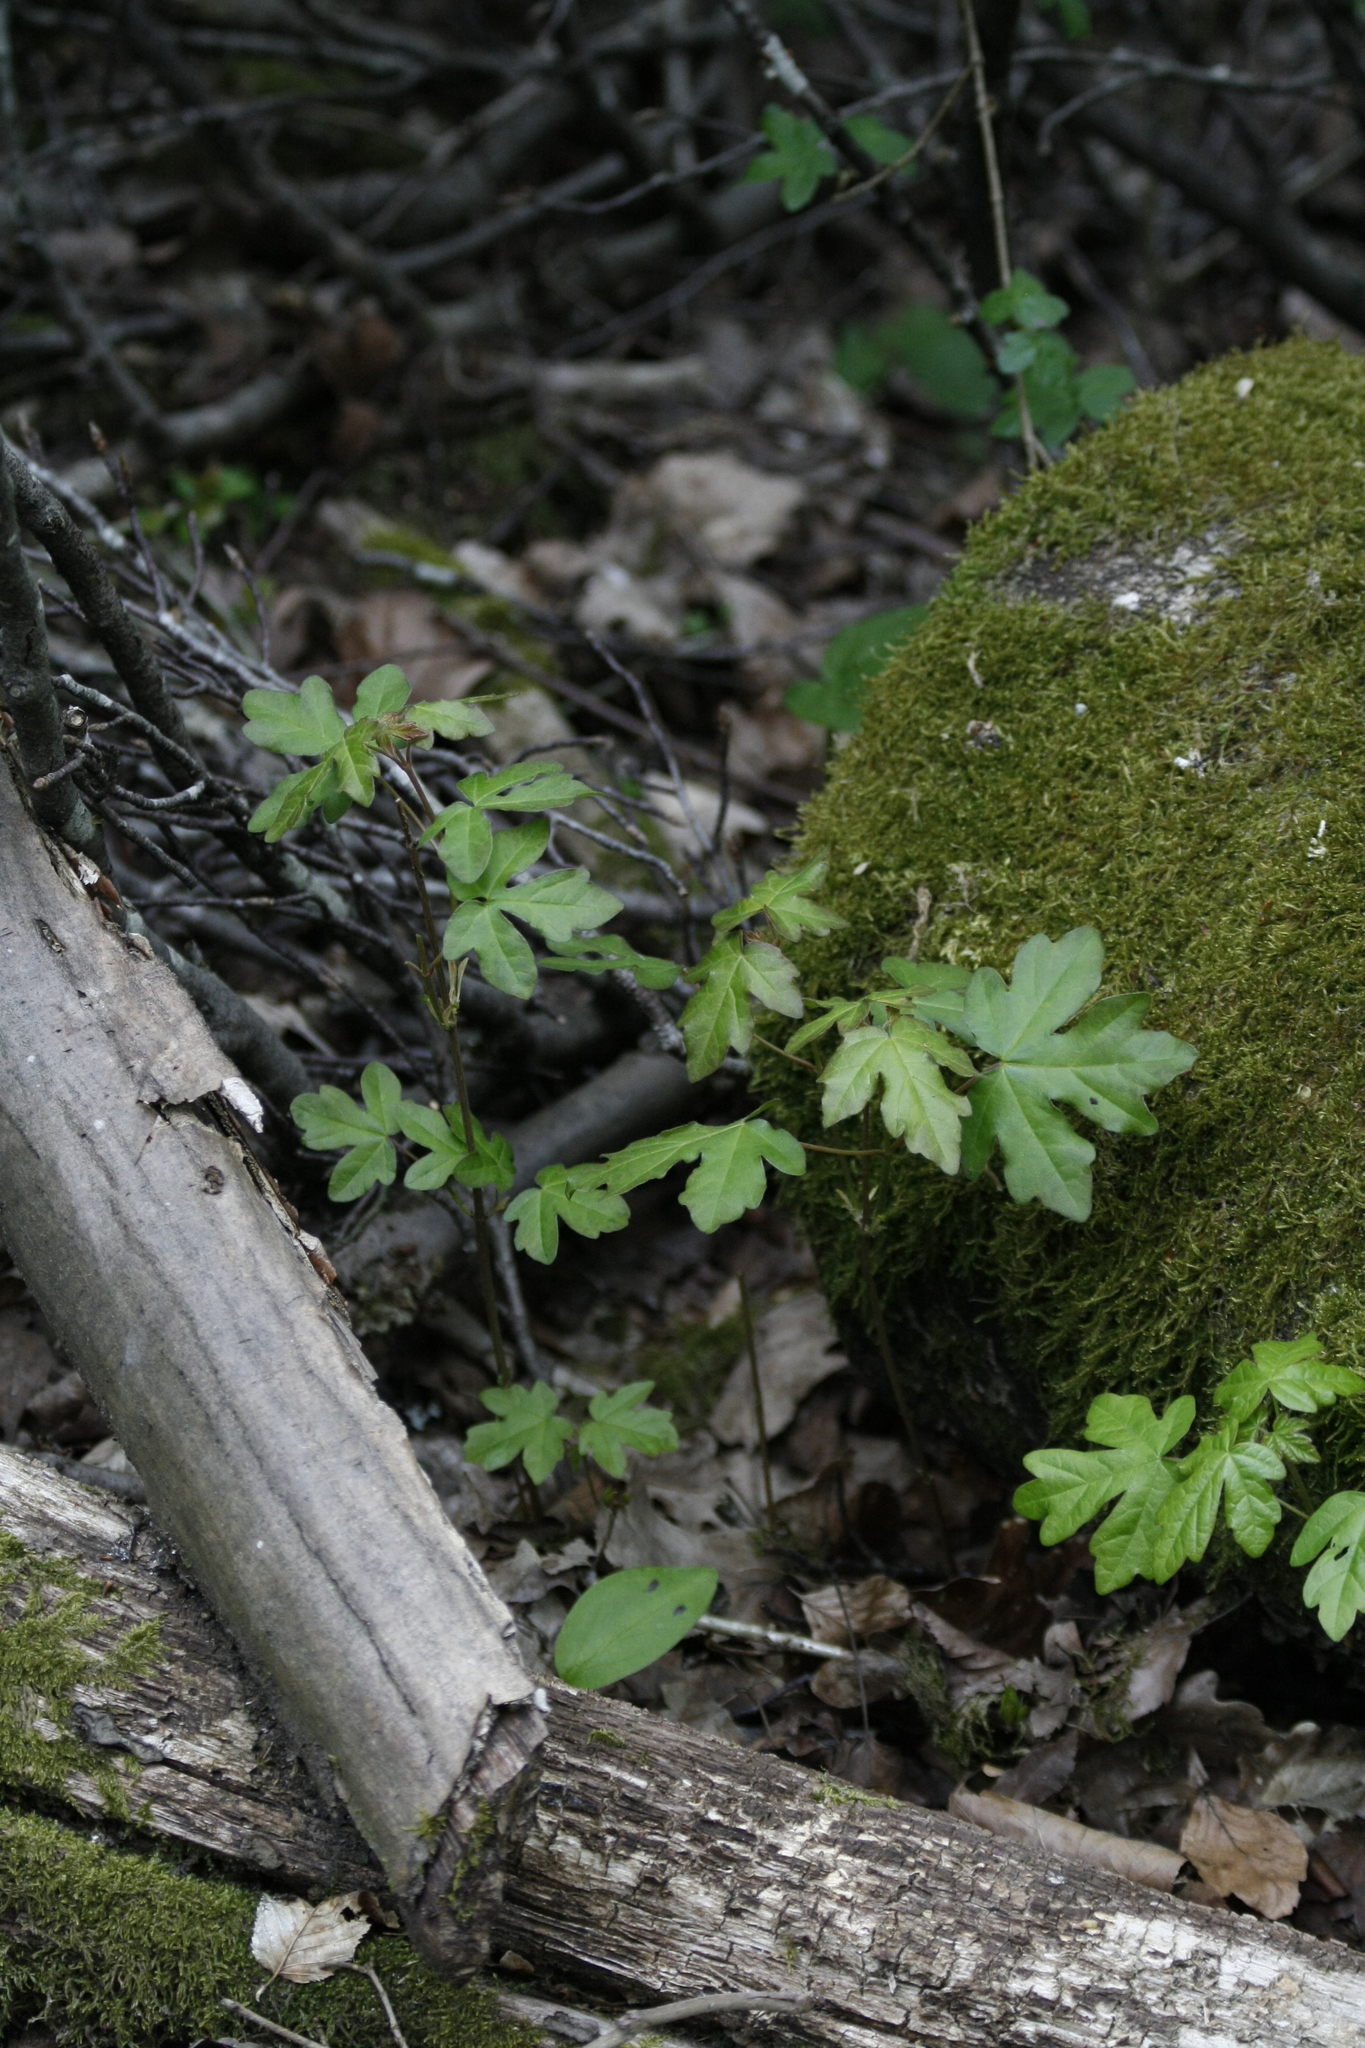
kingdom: Plantae
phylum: Tracheophyta
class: Magnoliopsida
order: Sapindales
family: Sapindaceae
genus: Acer
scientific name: Acer campestre
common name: Field maple
